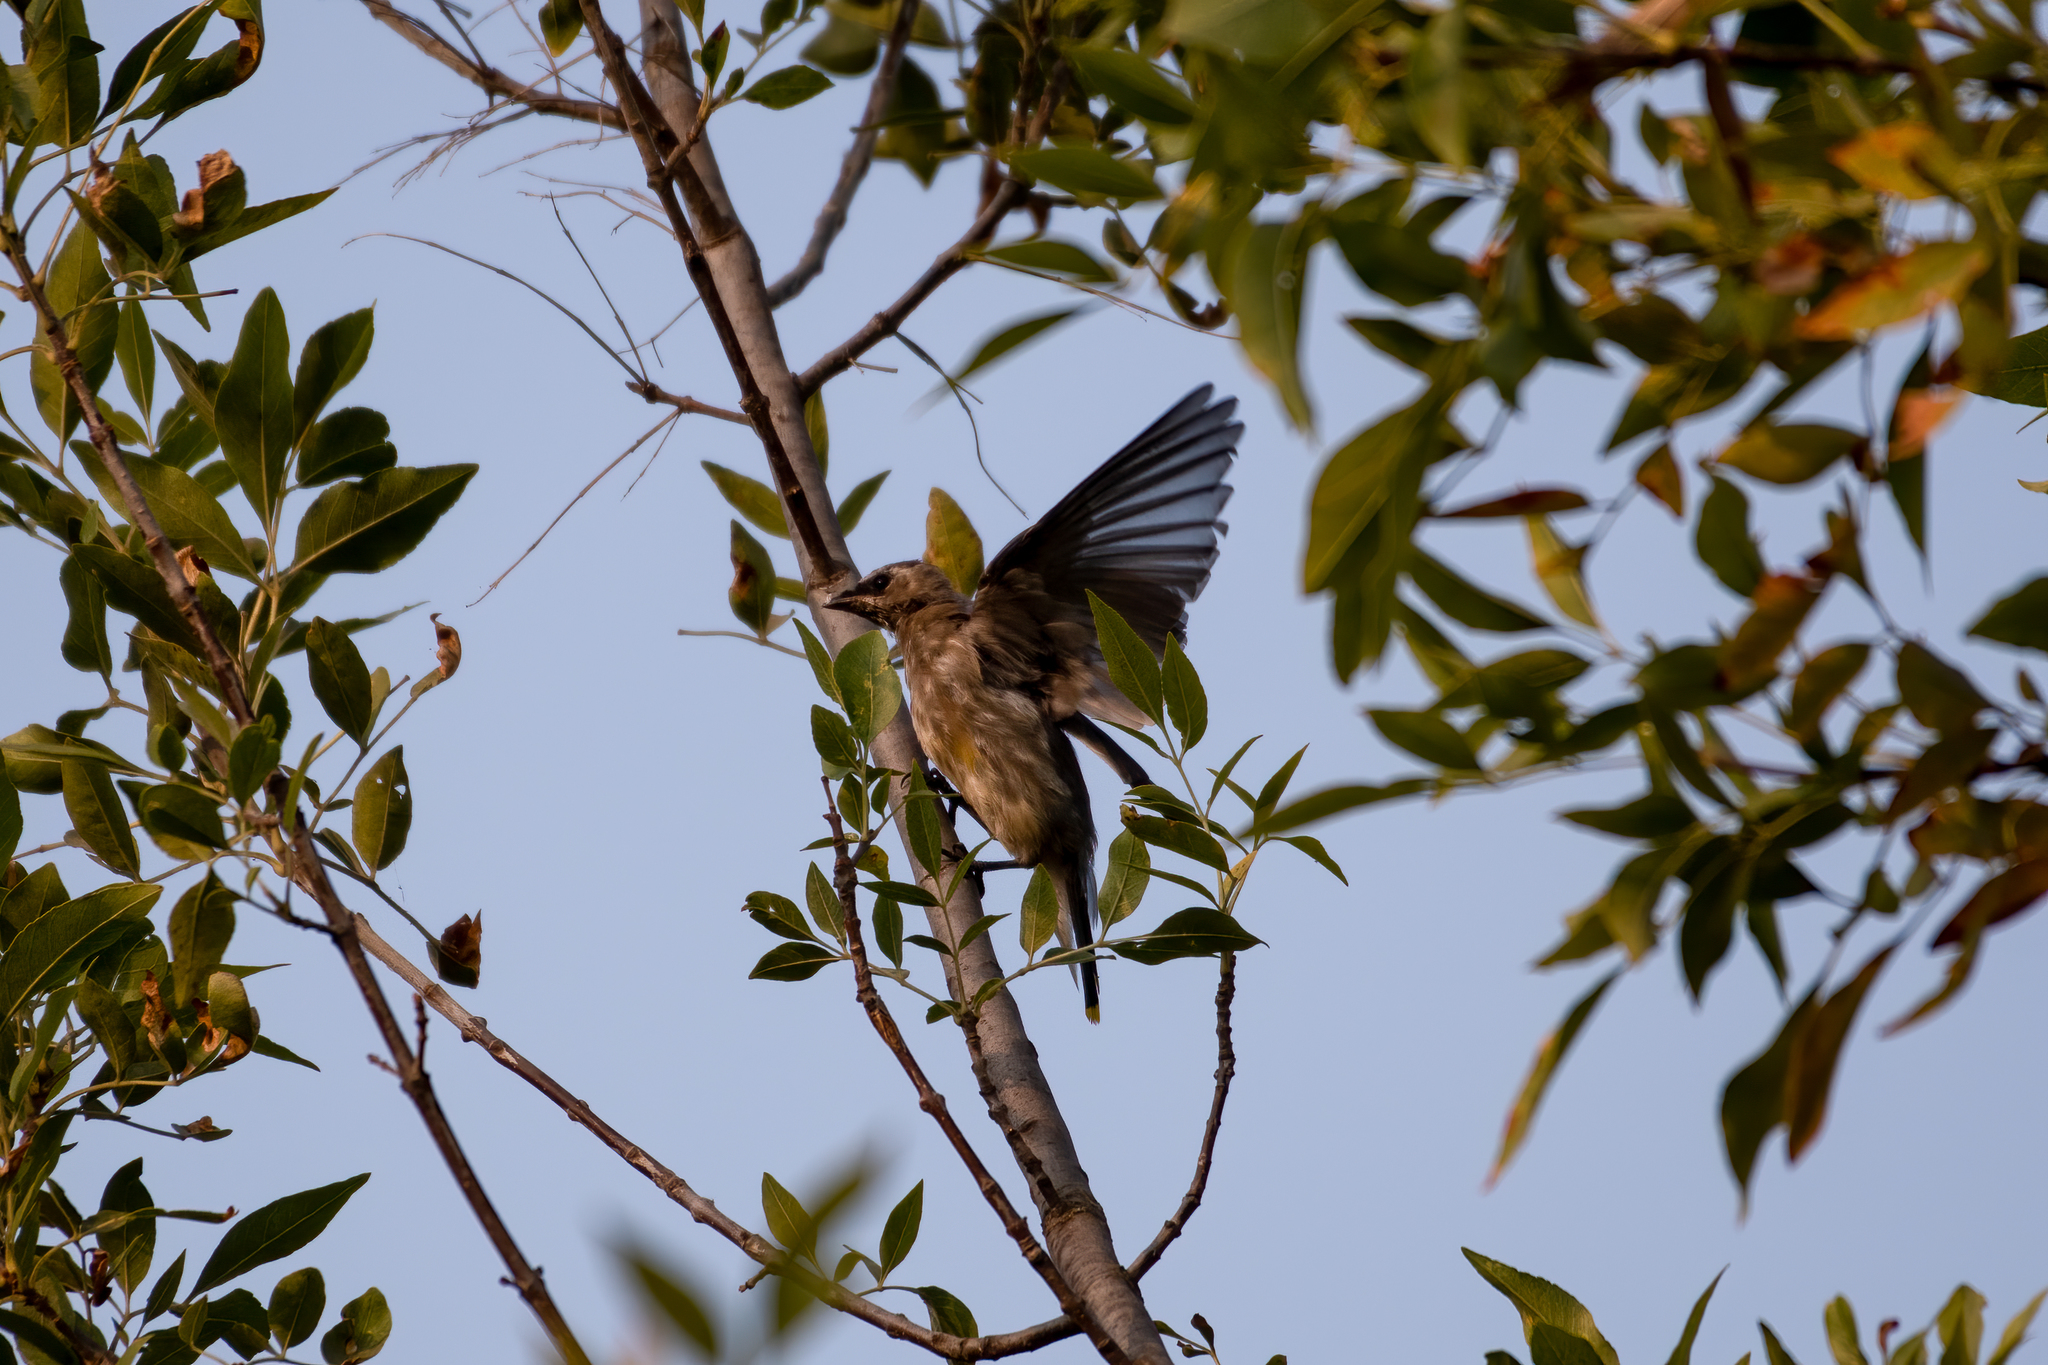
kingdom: Animalia
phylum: Chordata
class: Aves
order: Passeriformes
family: Bombycillidae
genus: Bombycilla
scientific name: Bombycilla cedrorum
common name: Cedar waxwing
